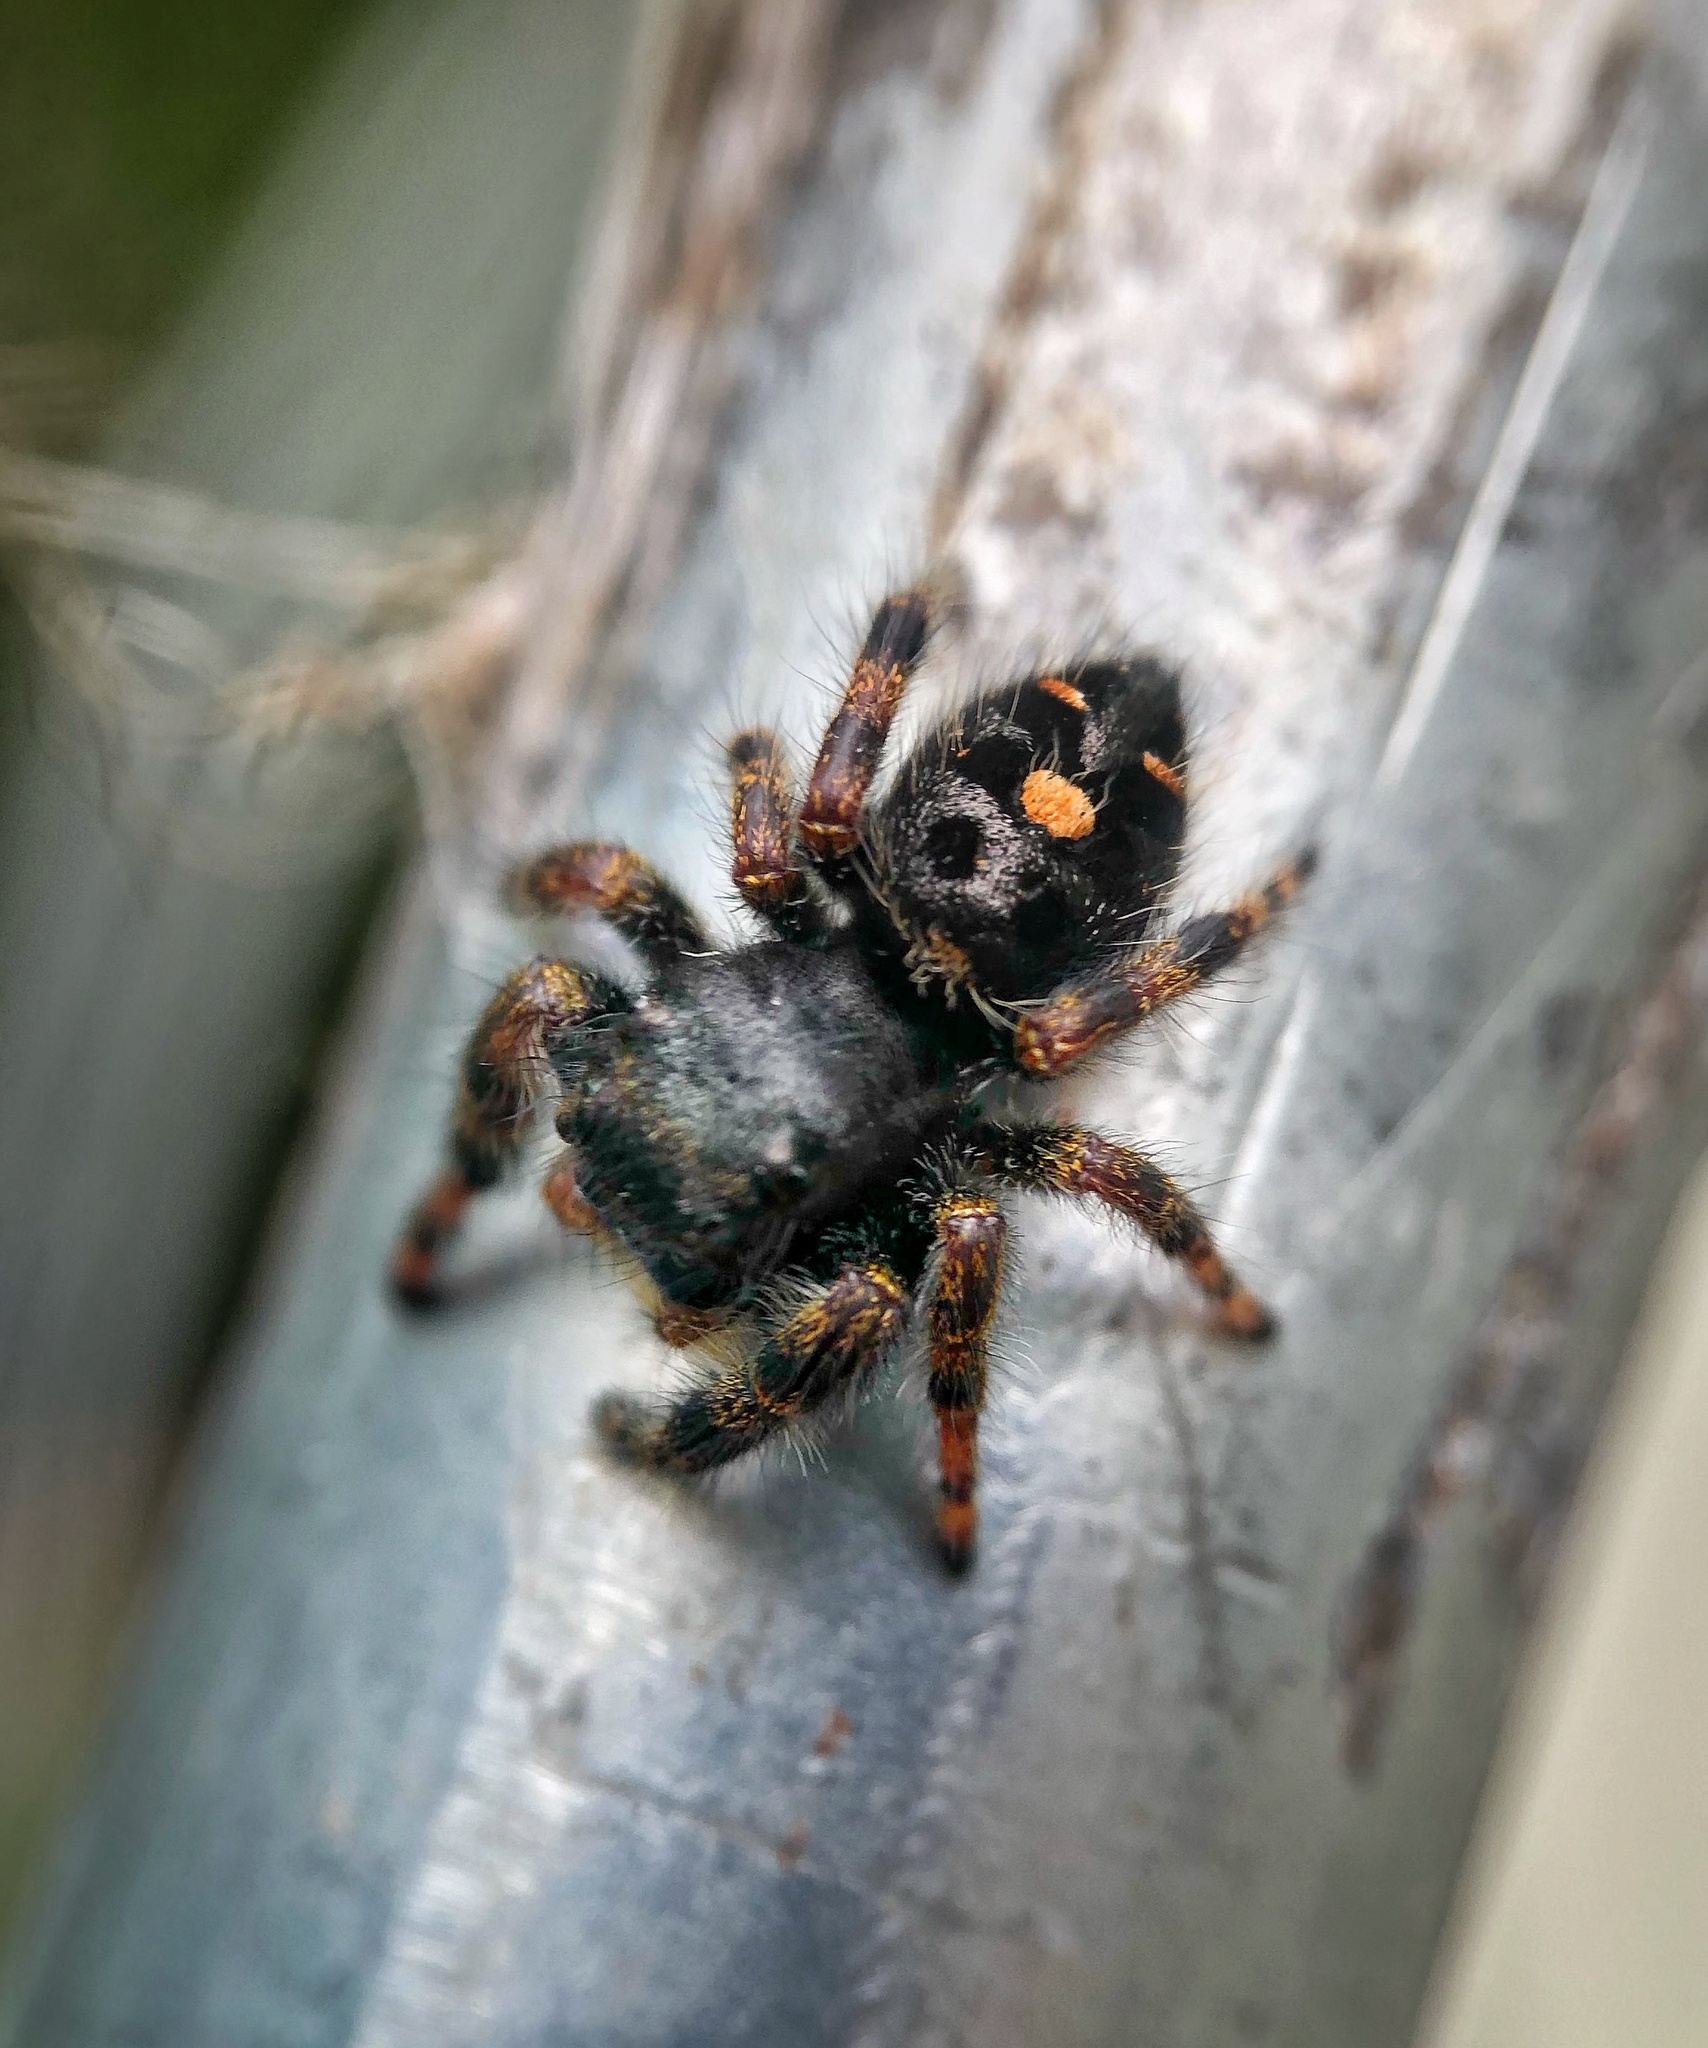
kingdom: Animalia
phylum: Arthropoda
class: Arachnida
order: Araneae
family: Salticidae
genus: Phidippus
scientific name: Phidippus audax
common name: Bold jumper
